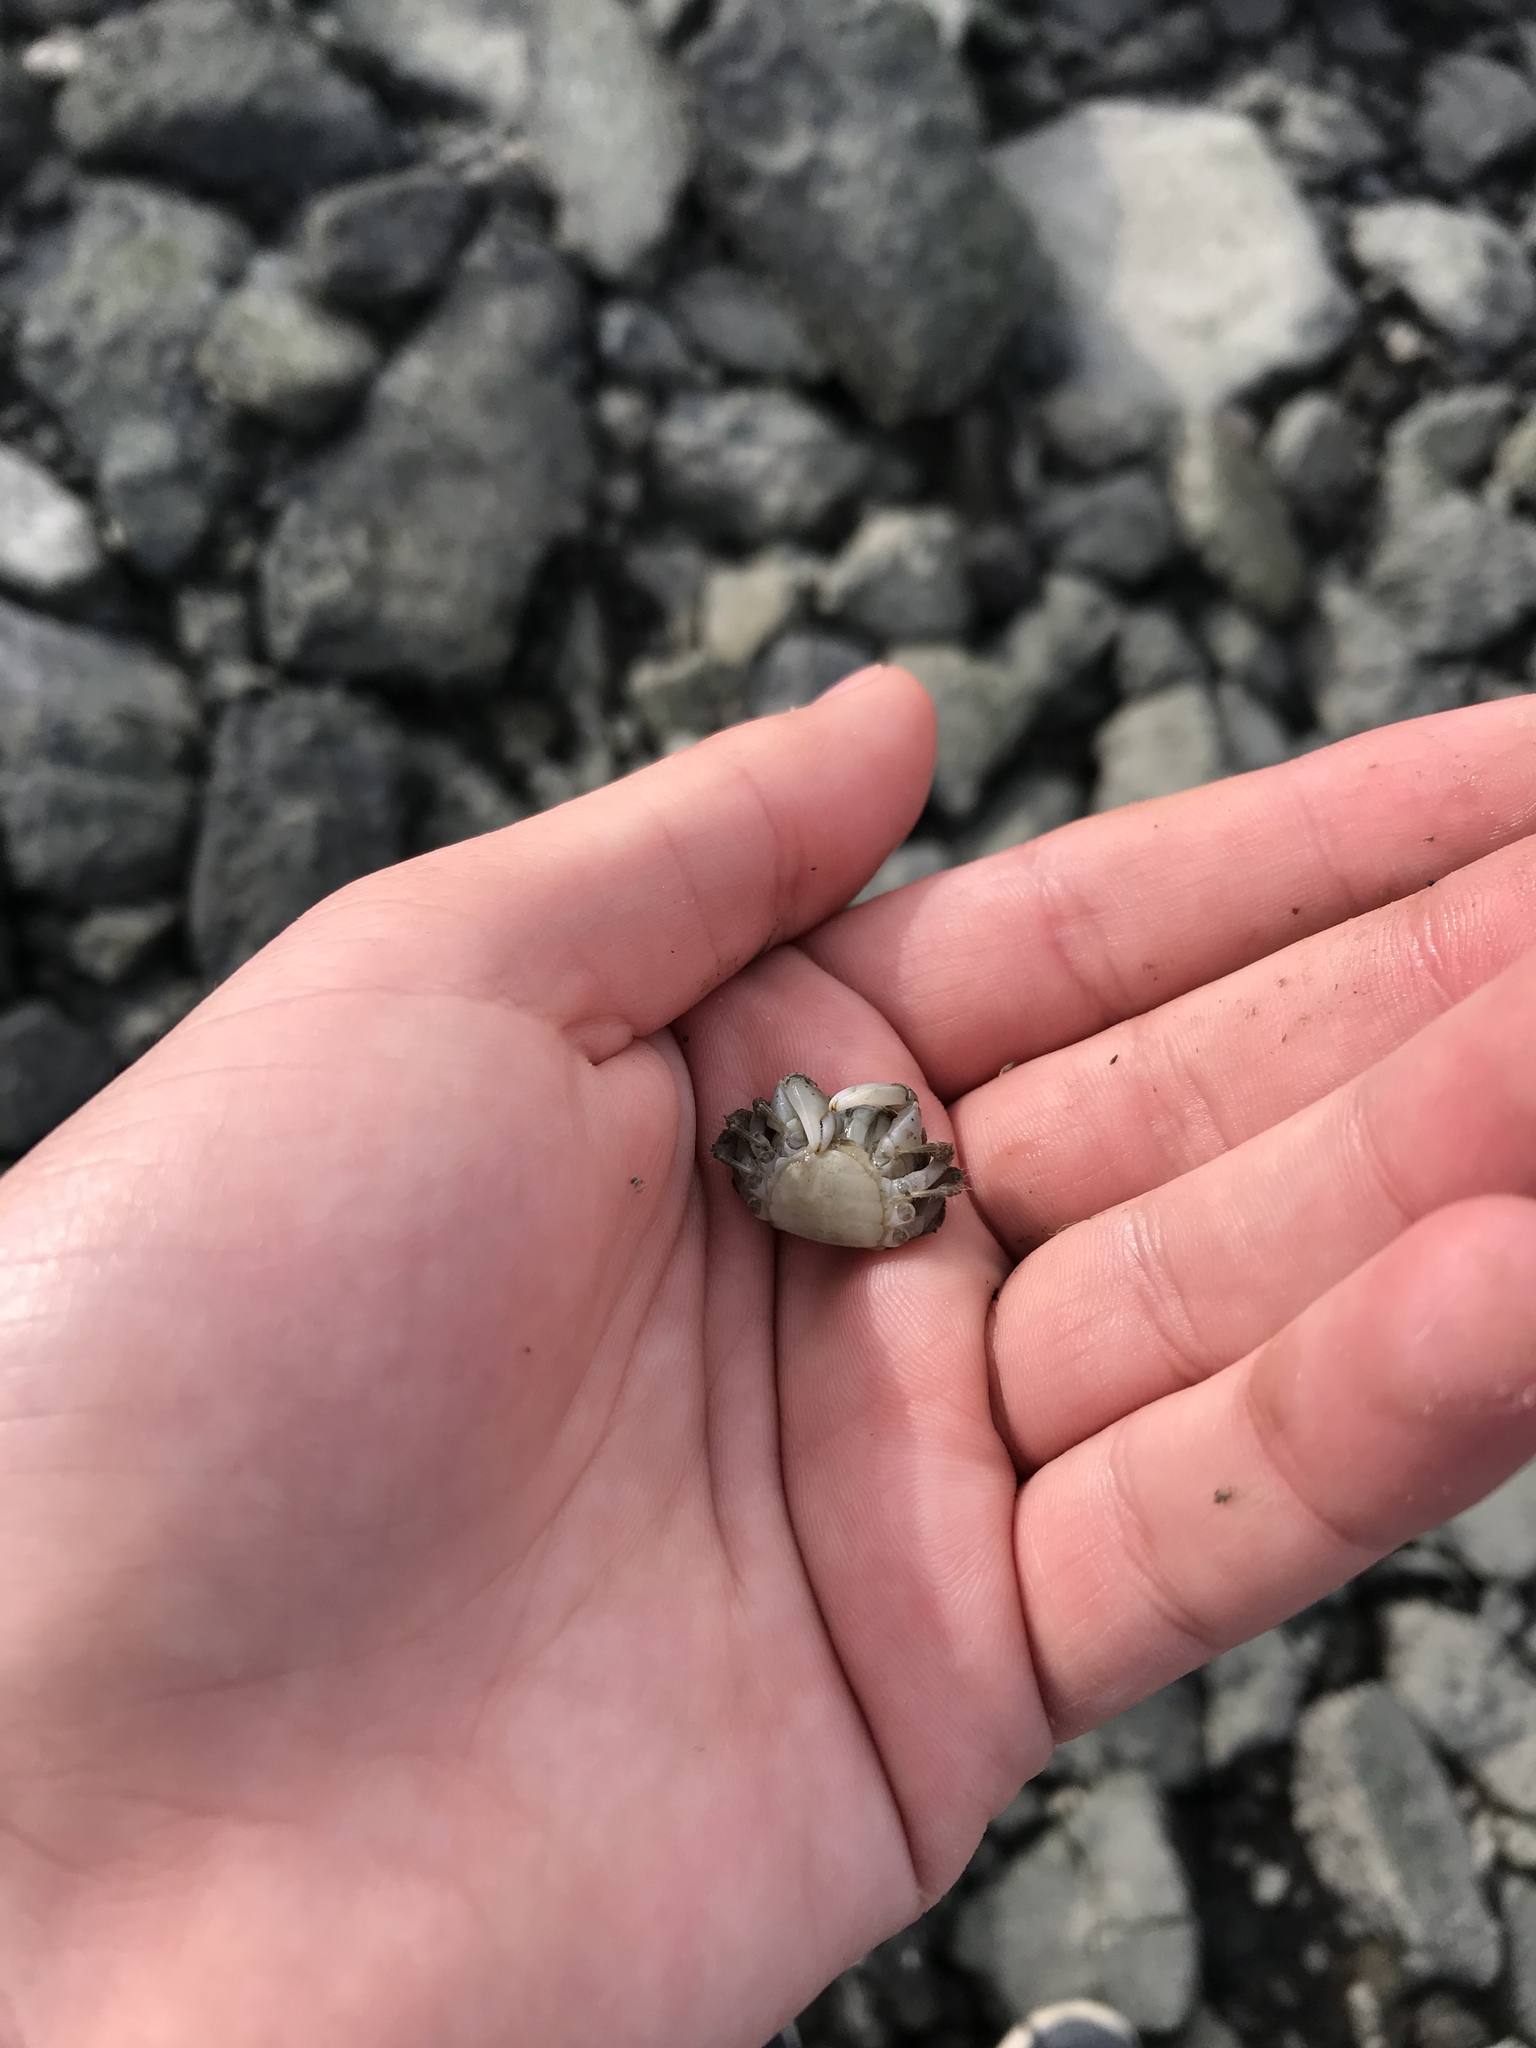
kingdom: Animalia
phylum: Arthropoda
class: Malacostraca
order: Decapoda
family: Varunidae
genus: Hemigrapsus
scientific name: Hemigrapsus oregonensis
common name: Yellow shore crab
